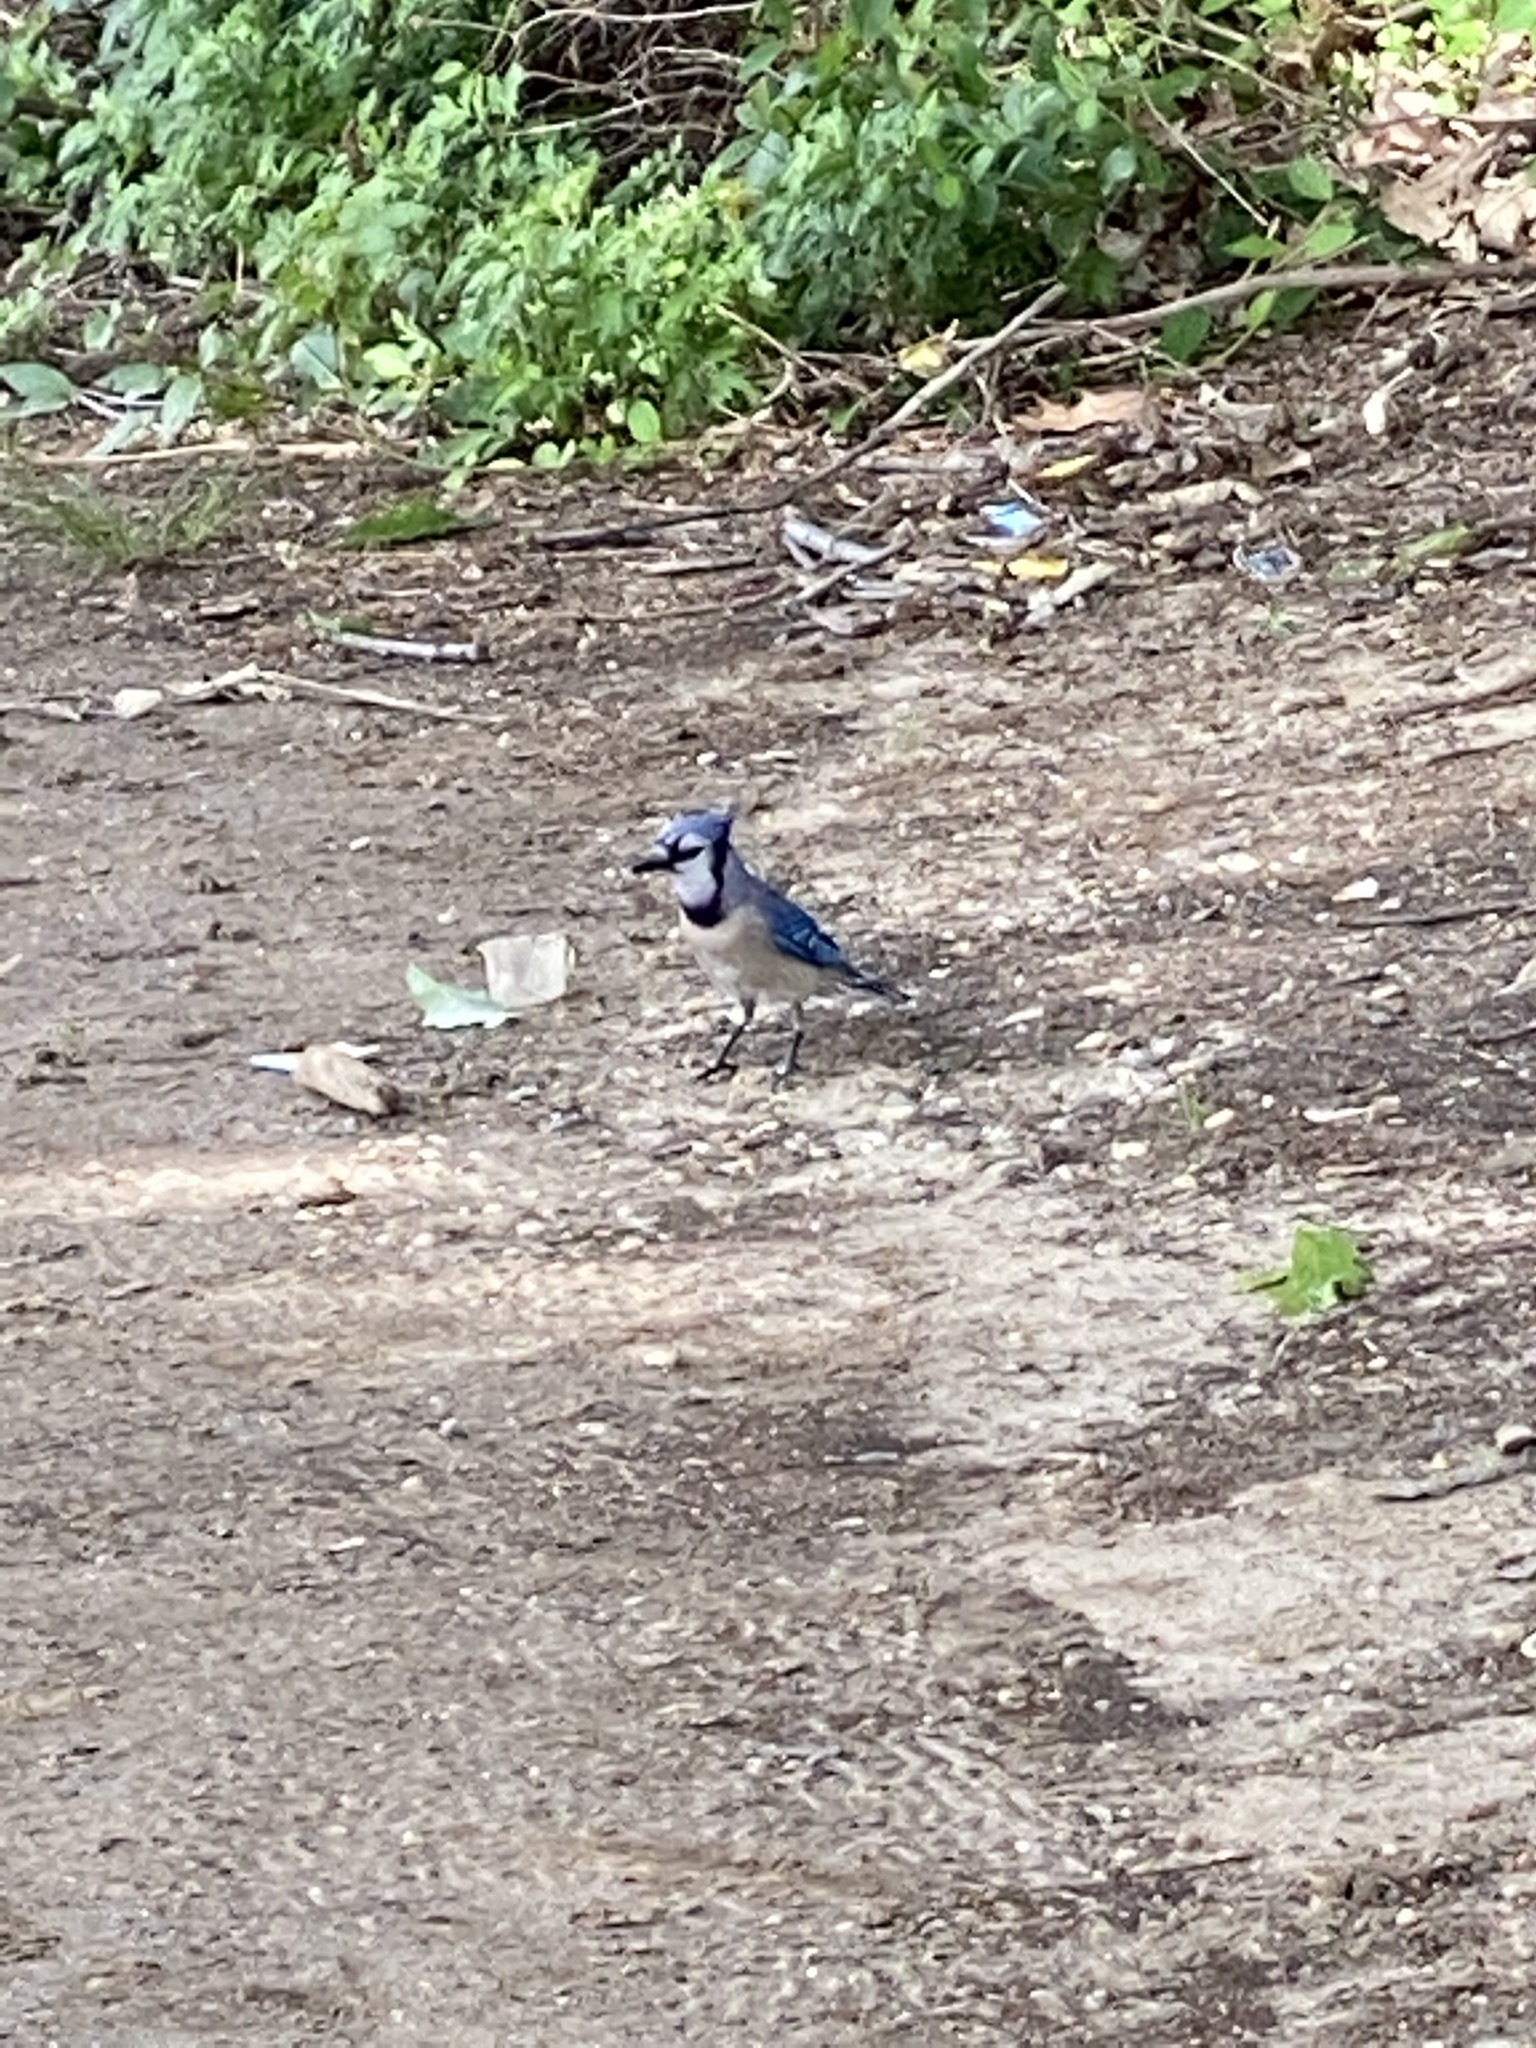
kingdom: Animalia
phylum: Chordata
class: Aves
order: Passeriformes
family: Corvidae
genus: Cyanocitta
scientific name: Cyanocitta cristata
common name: Blue jay
